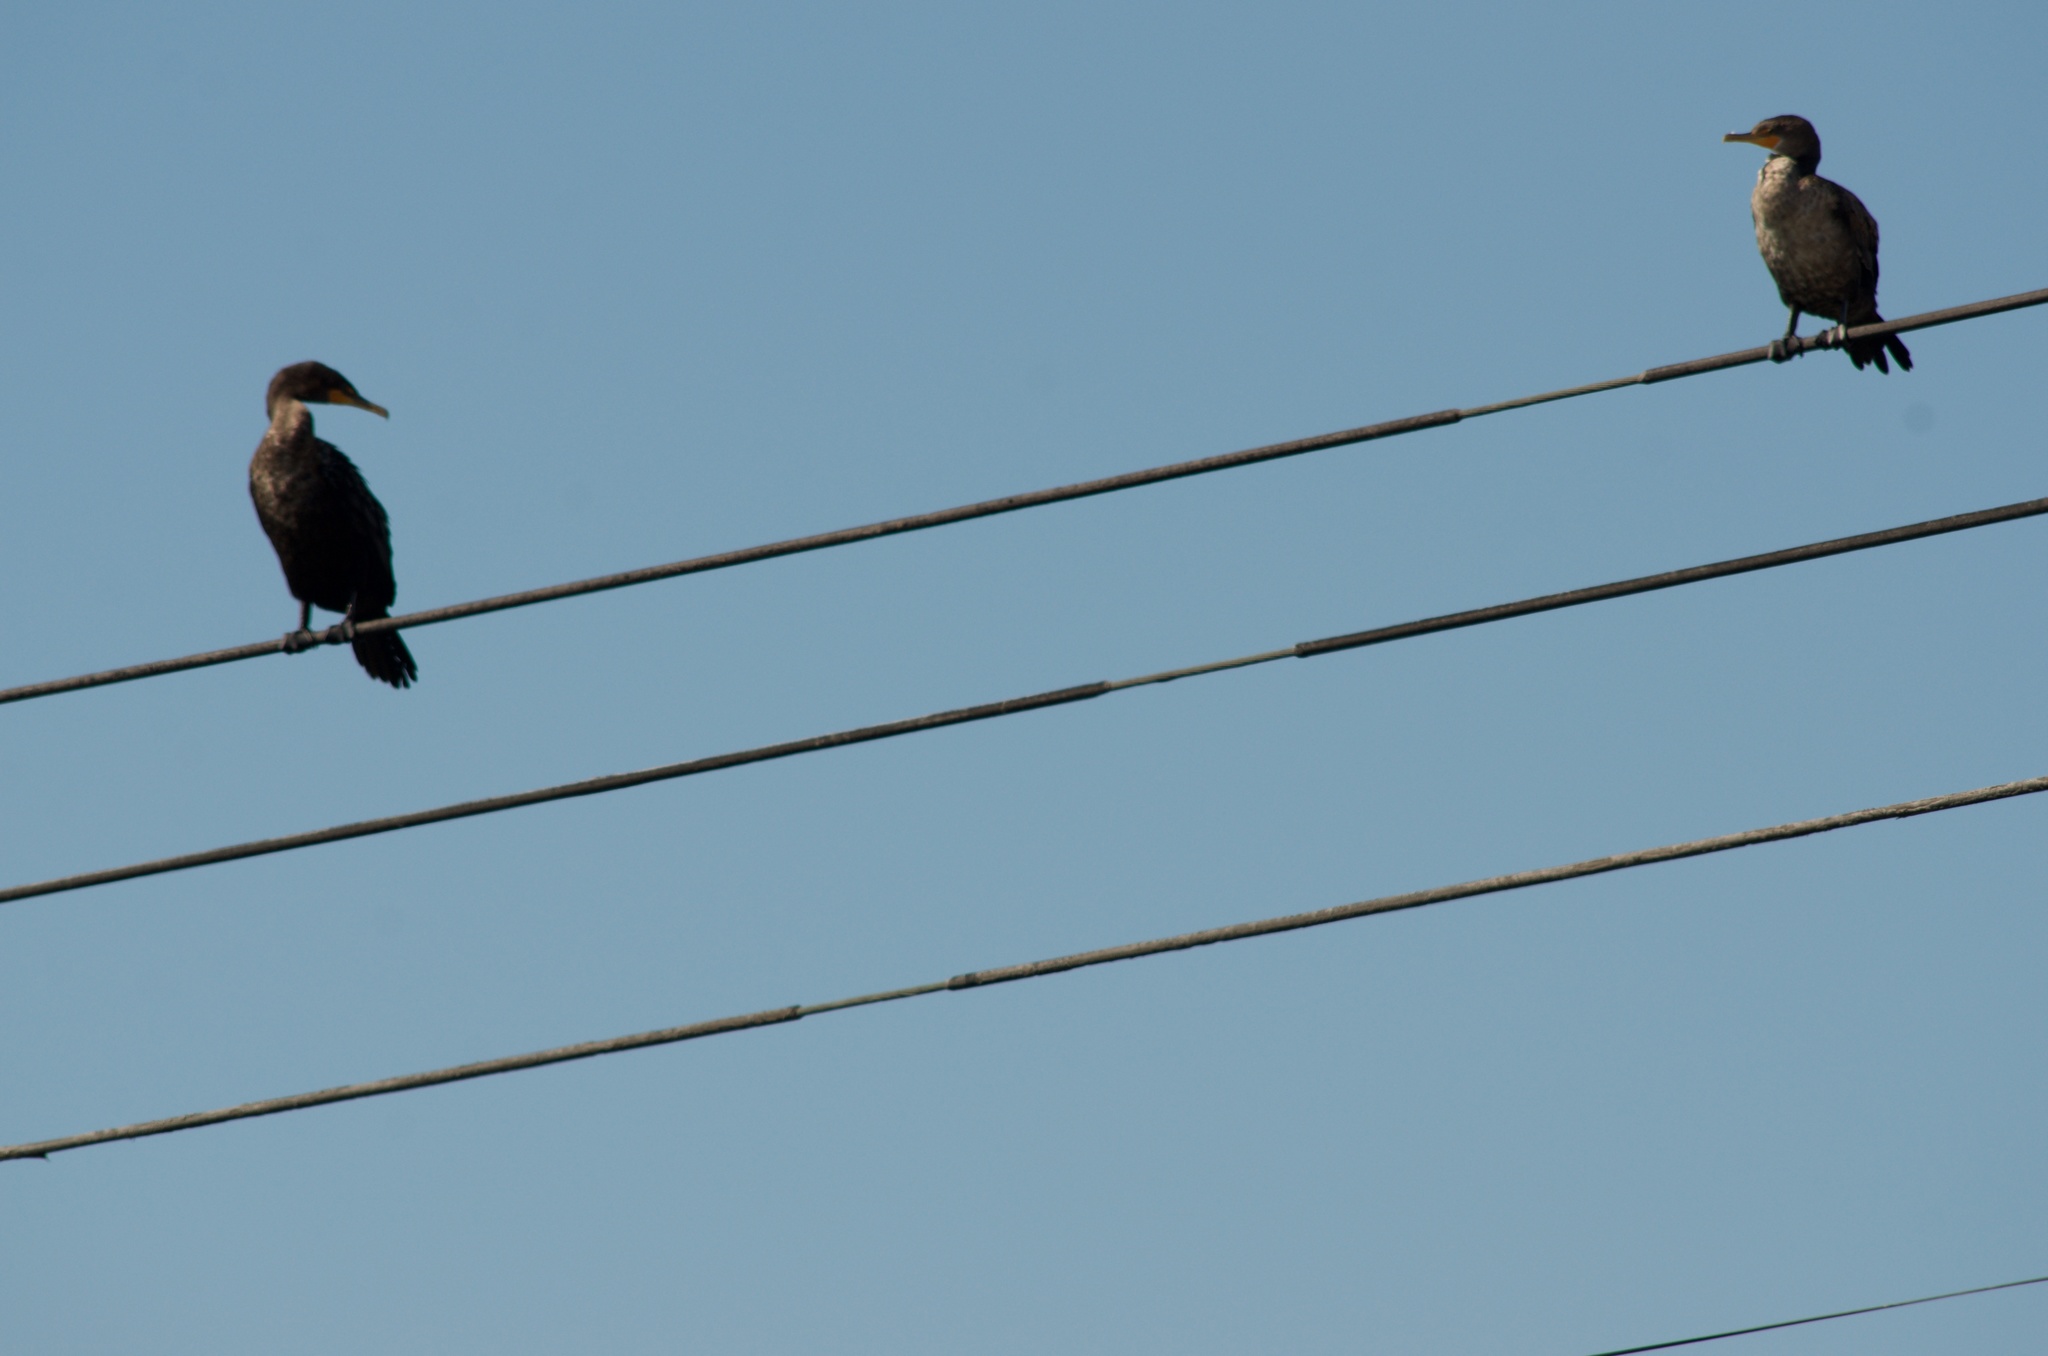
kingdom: Animalia
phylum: Chordata
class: Aves
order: Suliformes
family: Phalacrocoracidae
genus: Phalacrocorax
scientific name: Phalacrocorax auritus
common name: Double-crested cormorant
